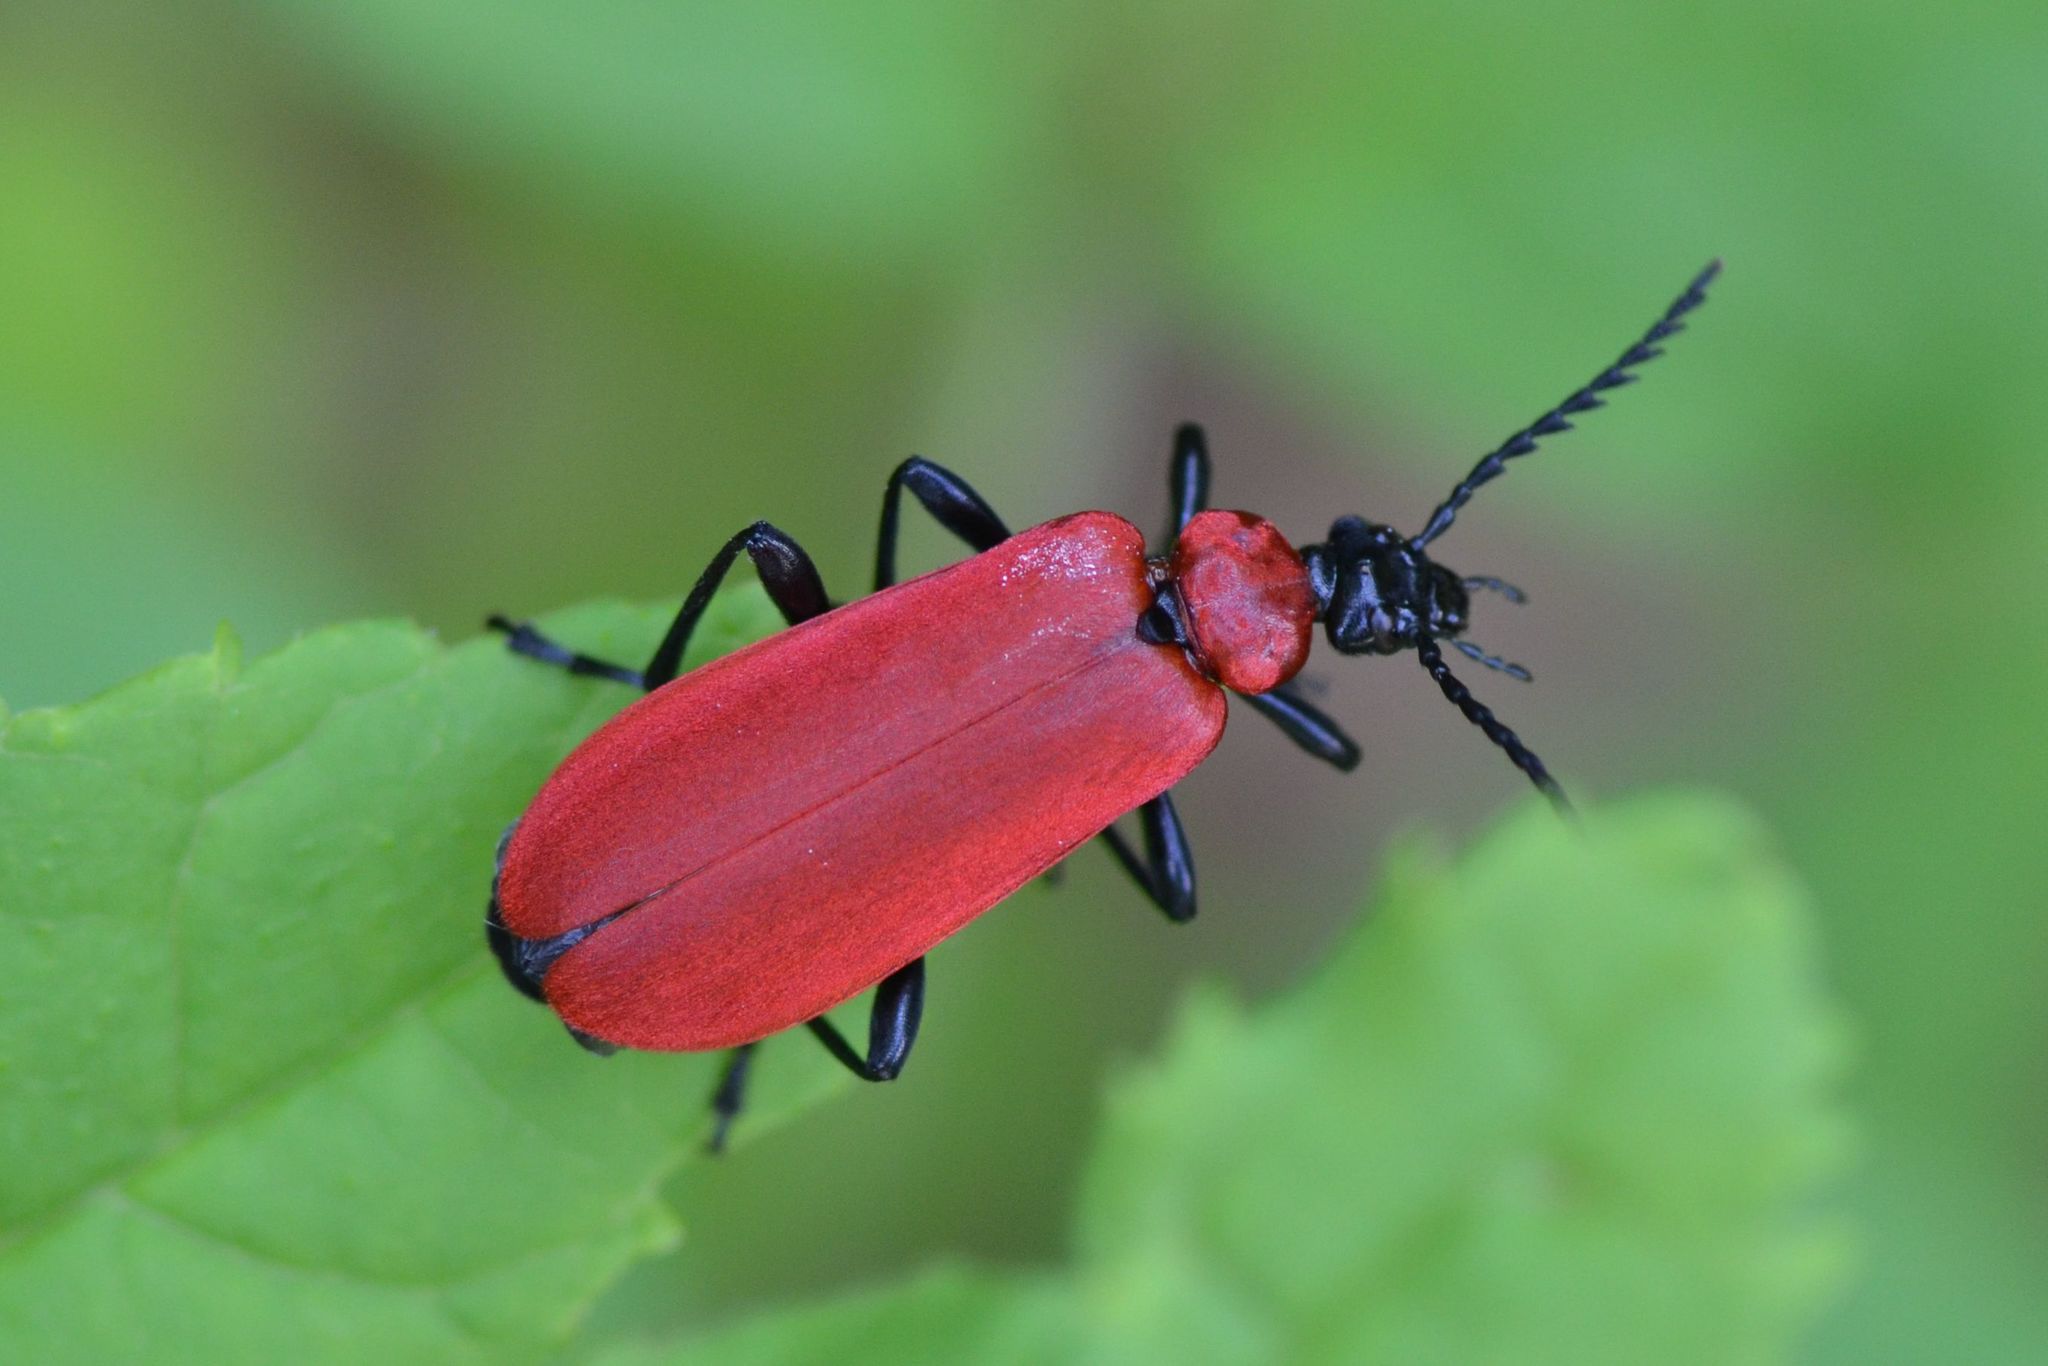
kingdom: Animalia
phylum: Arthropoda
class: Insecta
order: Coleoptera
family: Pyrochroidae
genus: Pyrochroa
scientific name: Pyrochroa coccinea
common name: Black-headed cardinal beetle
